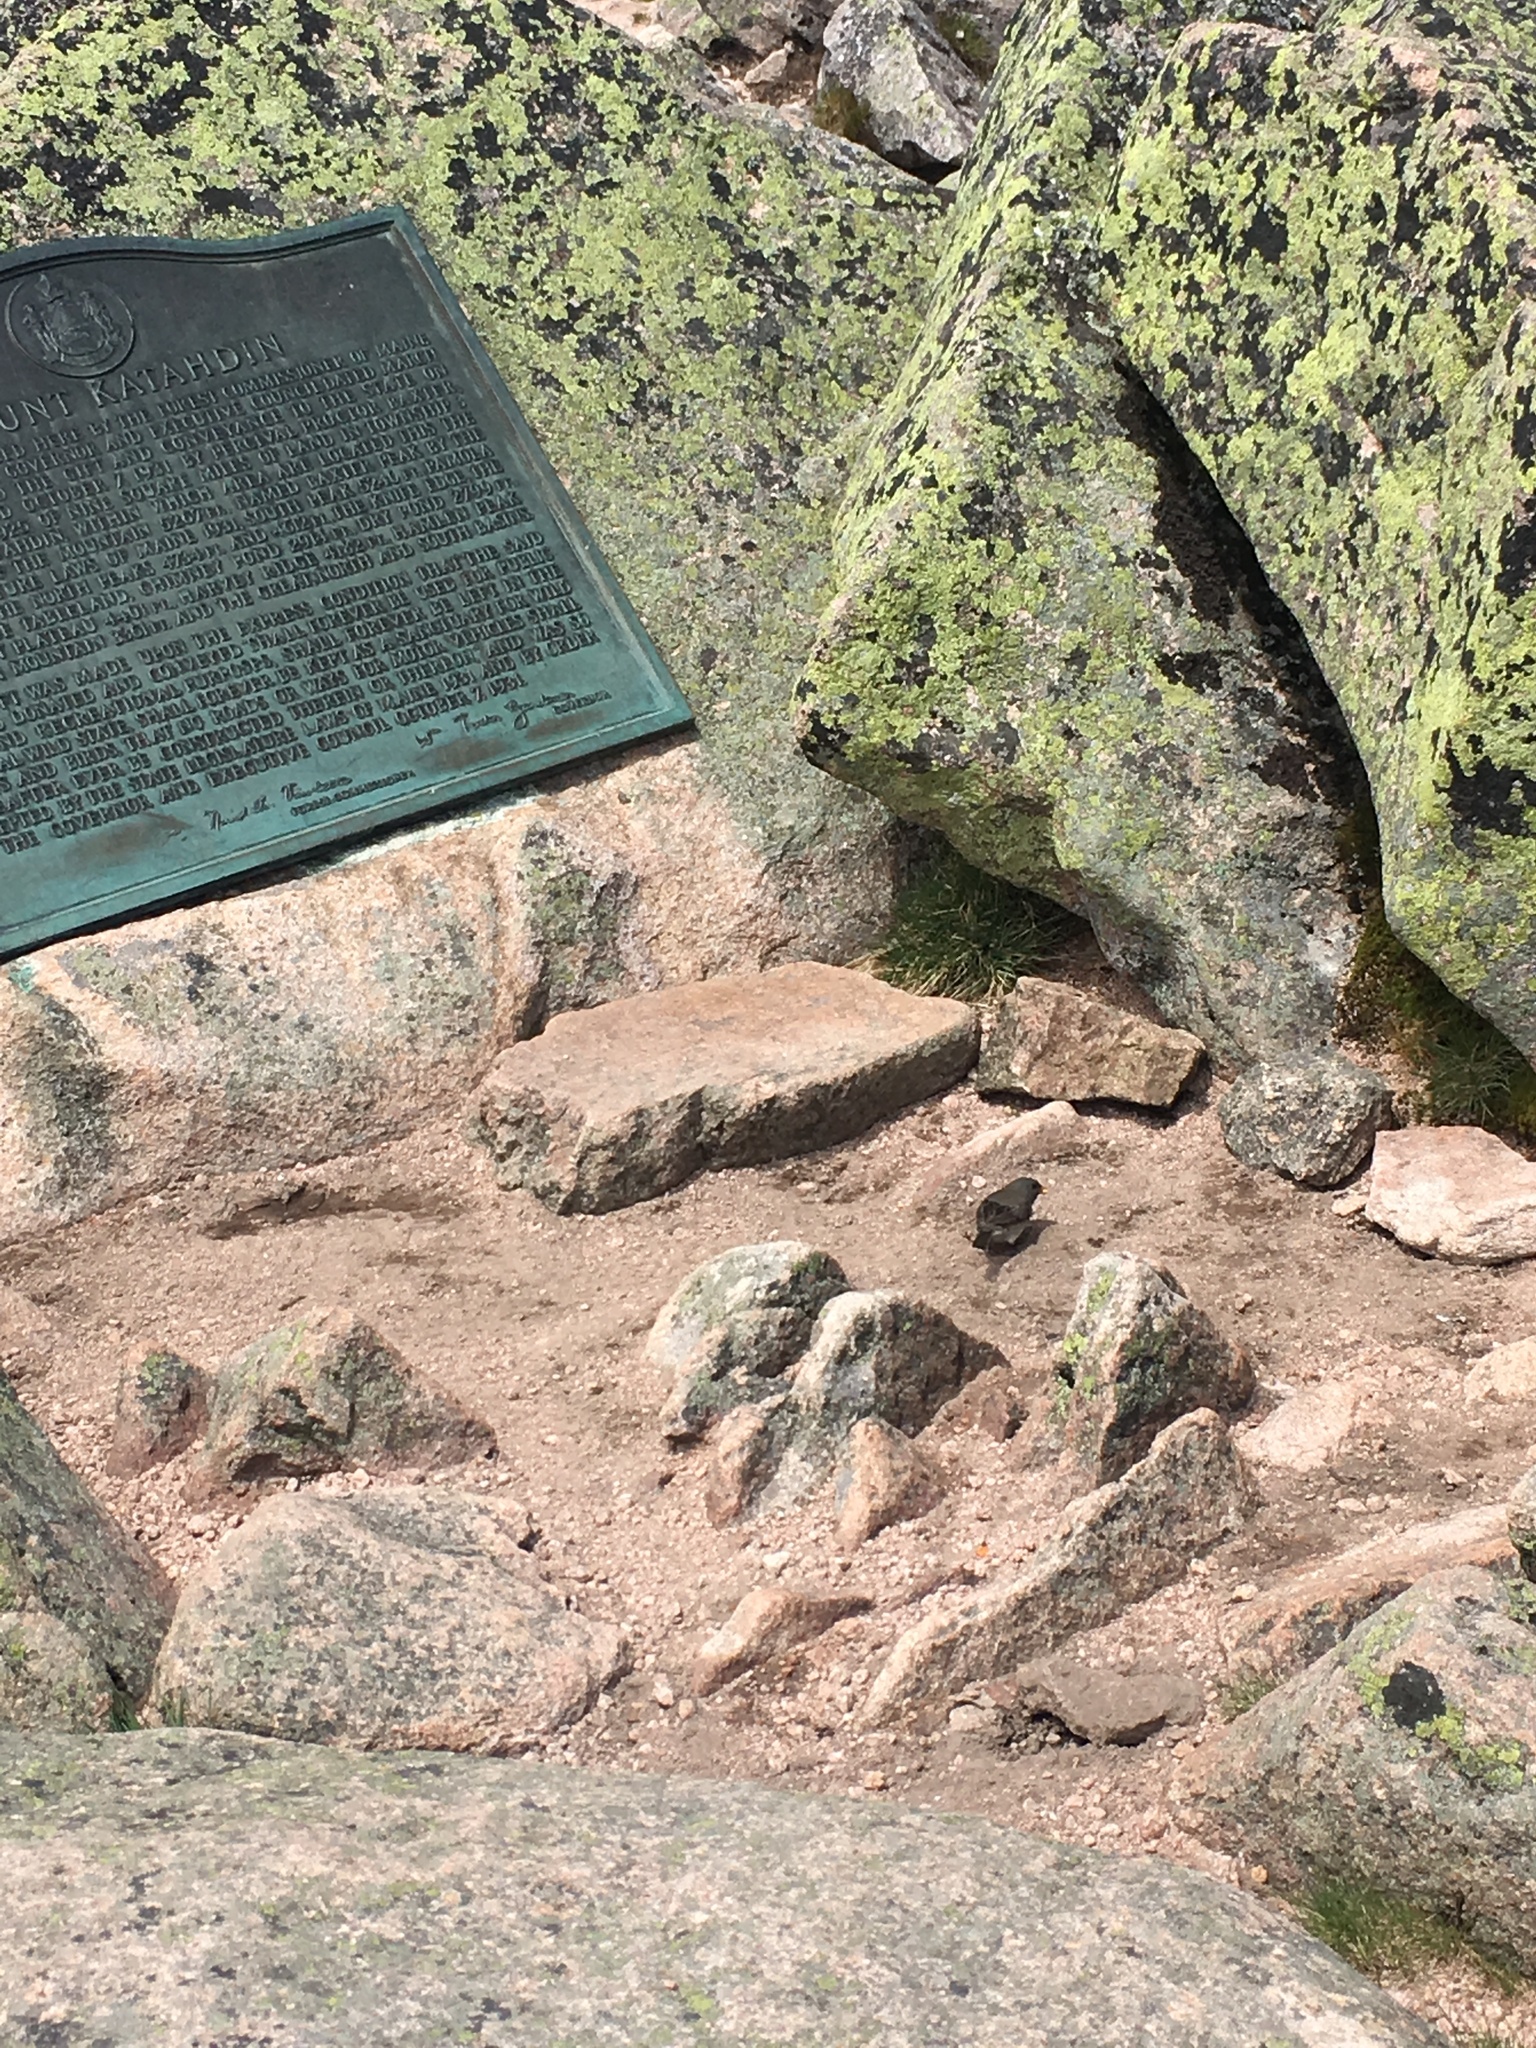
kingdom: Animalia
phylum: Chordata
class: Aves
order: Passeriformes
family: Passerellidae
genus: Junco
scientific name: Junco hyemalis
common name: Dark-eyed junco
